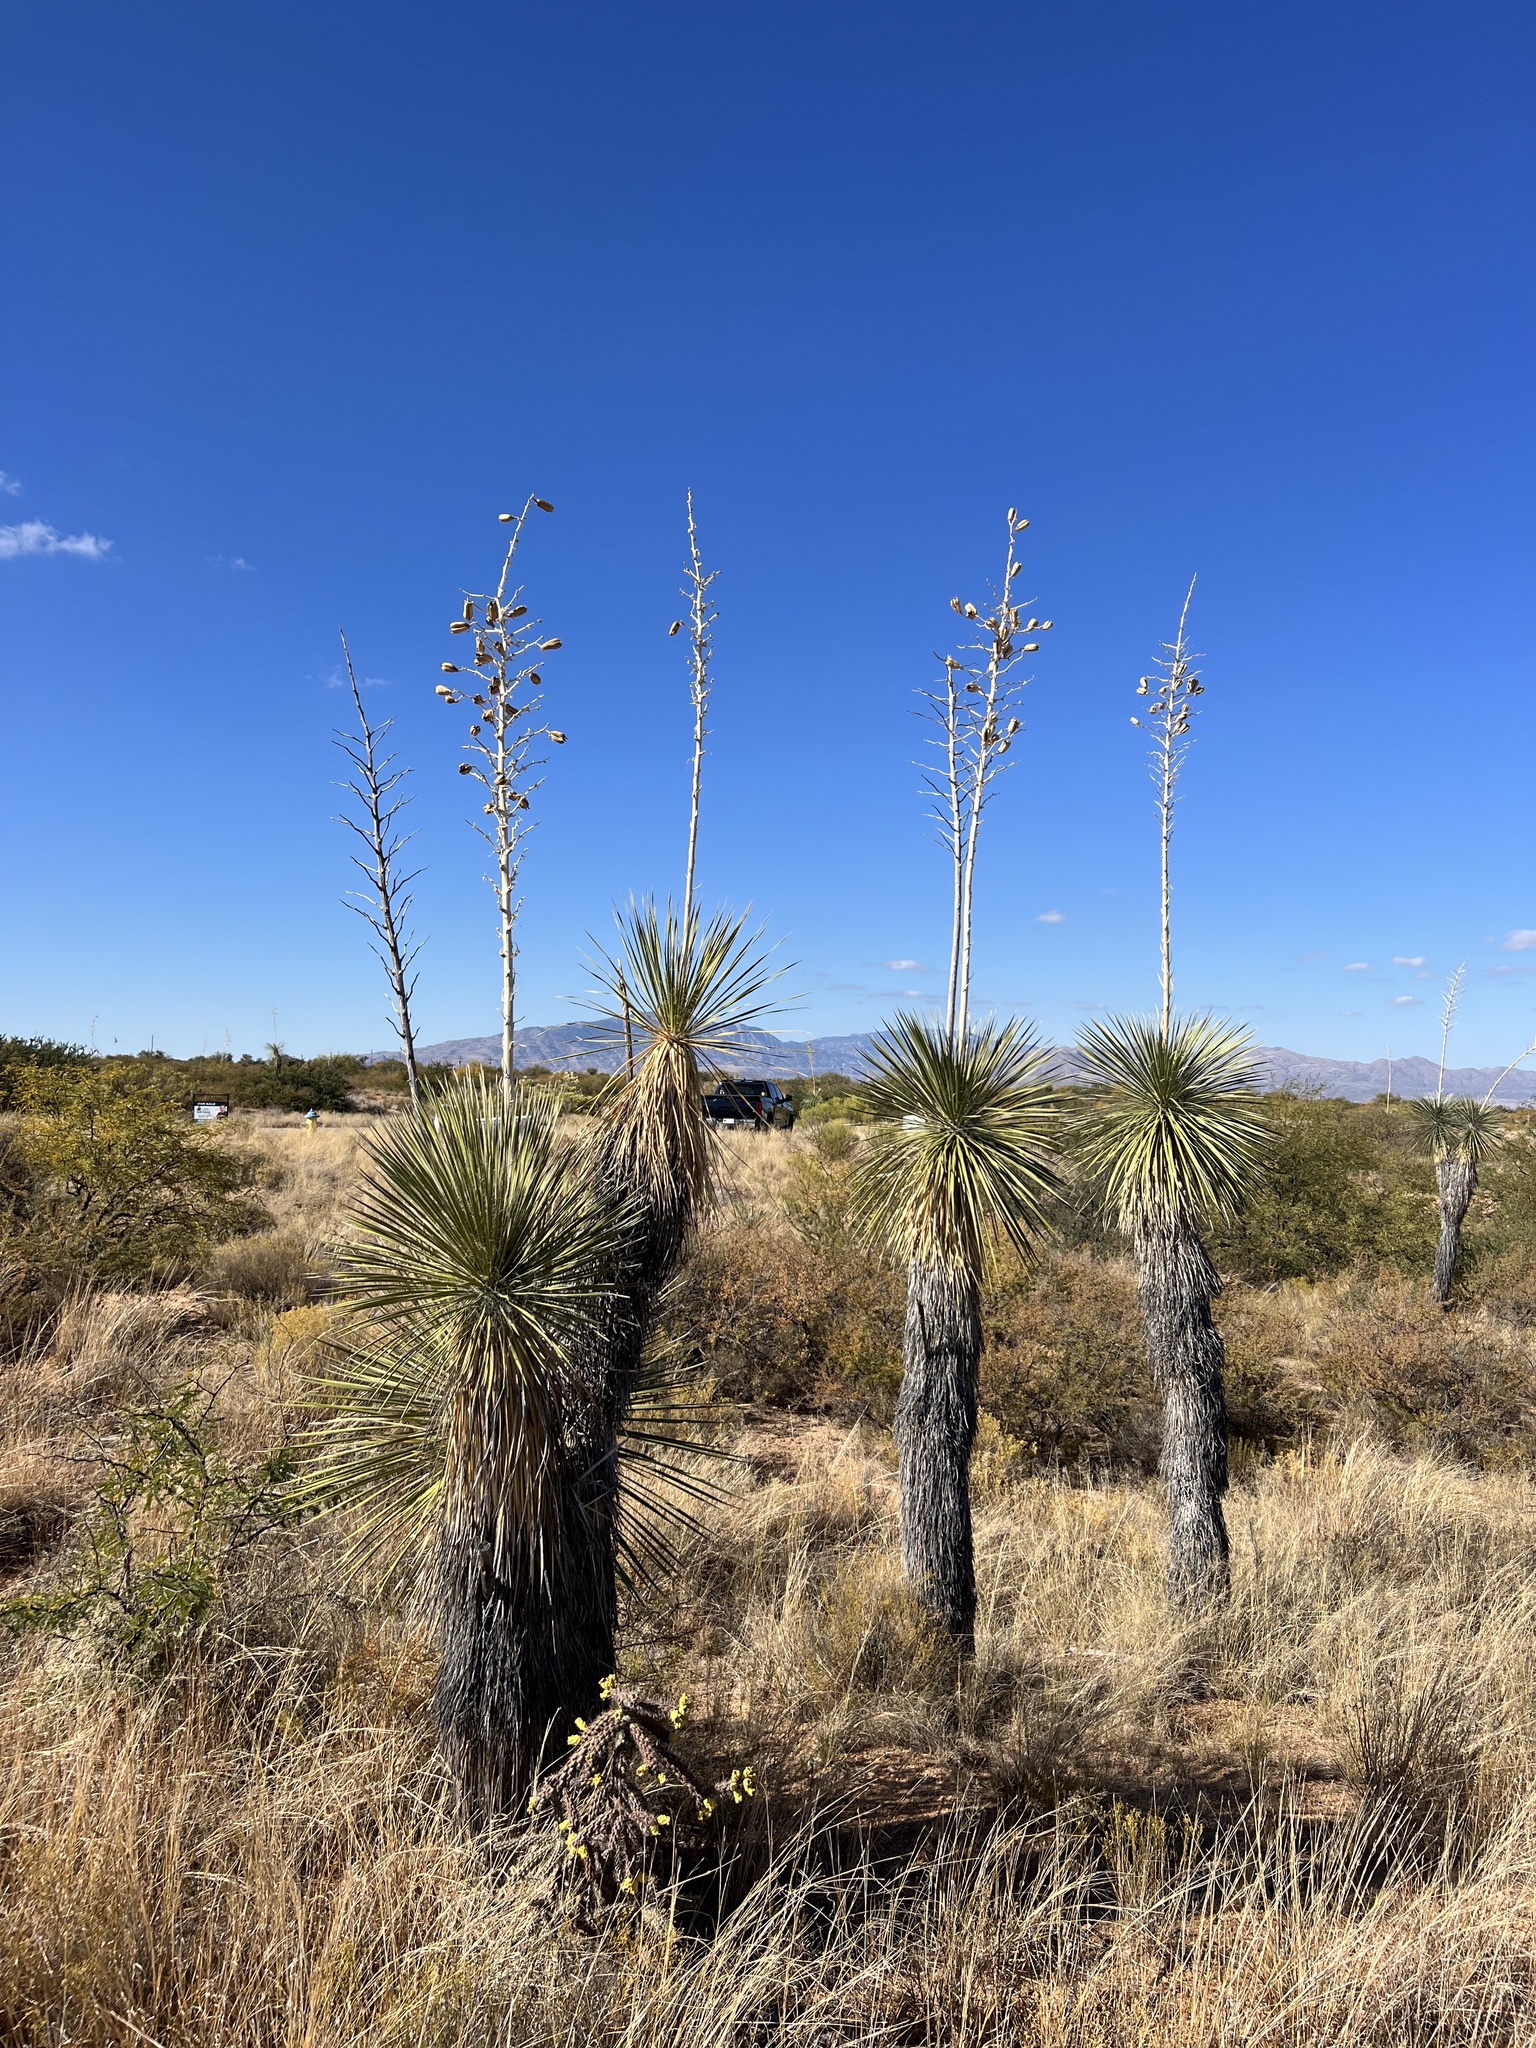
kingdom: Plantae
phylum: Tracheophyta
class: Liliopsida
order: Asparagales
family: Asparagaceae
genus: Yucca
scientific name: Yucca elata
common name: Palmella
